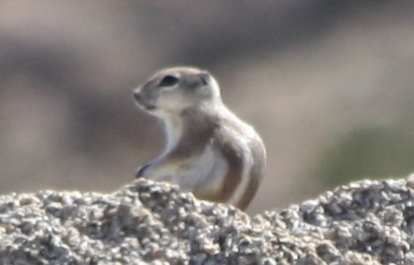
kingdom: Animalia
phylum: Chordata
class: Mammalia
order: Rodentia
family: Sciuridae
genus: Ammospermophilus
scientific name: Ammospermophilus leucurus
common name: White-tailed antelope squirrel
